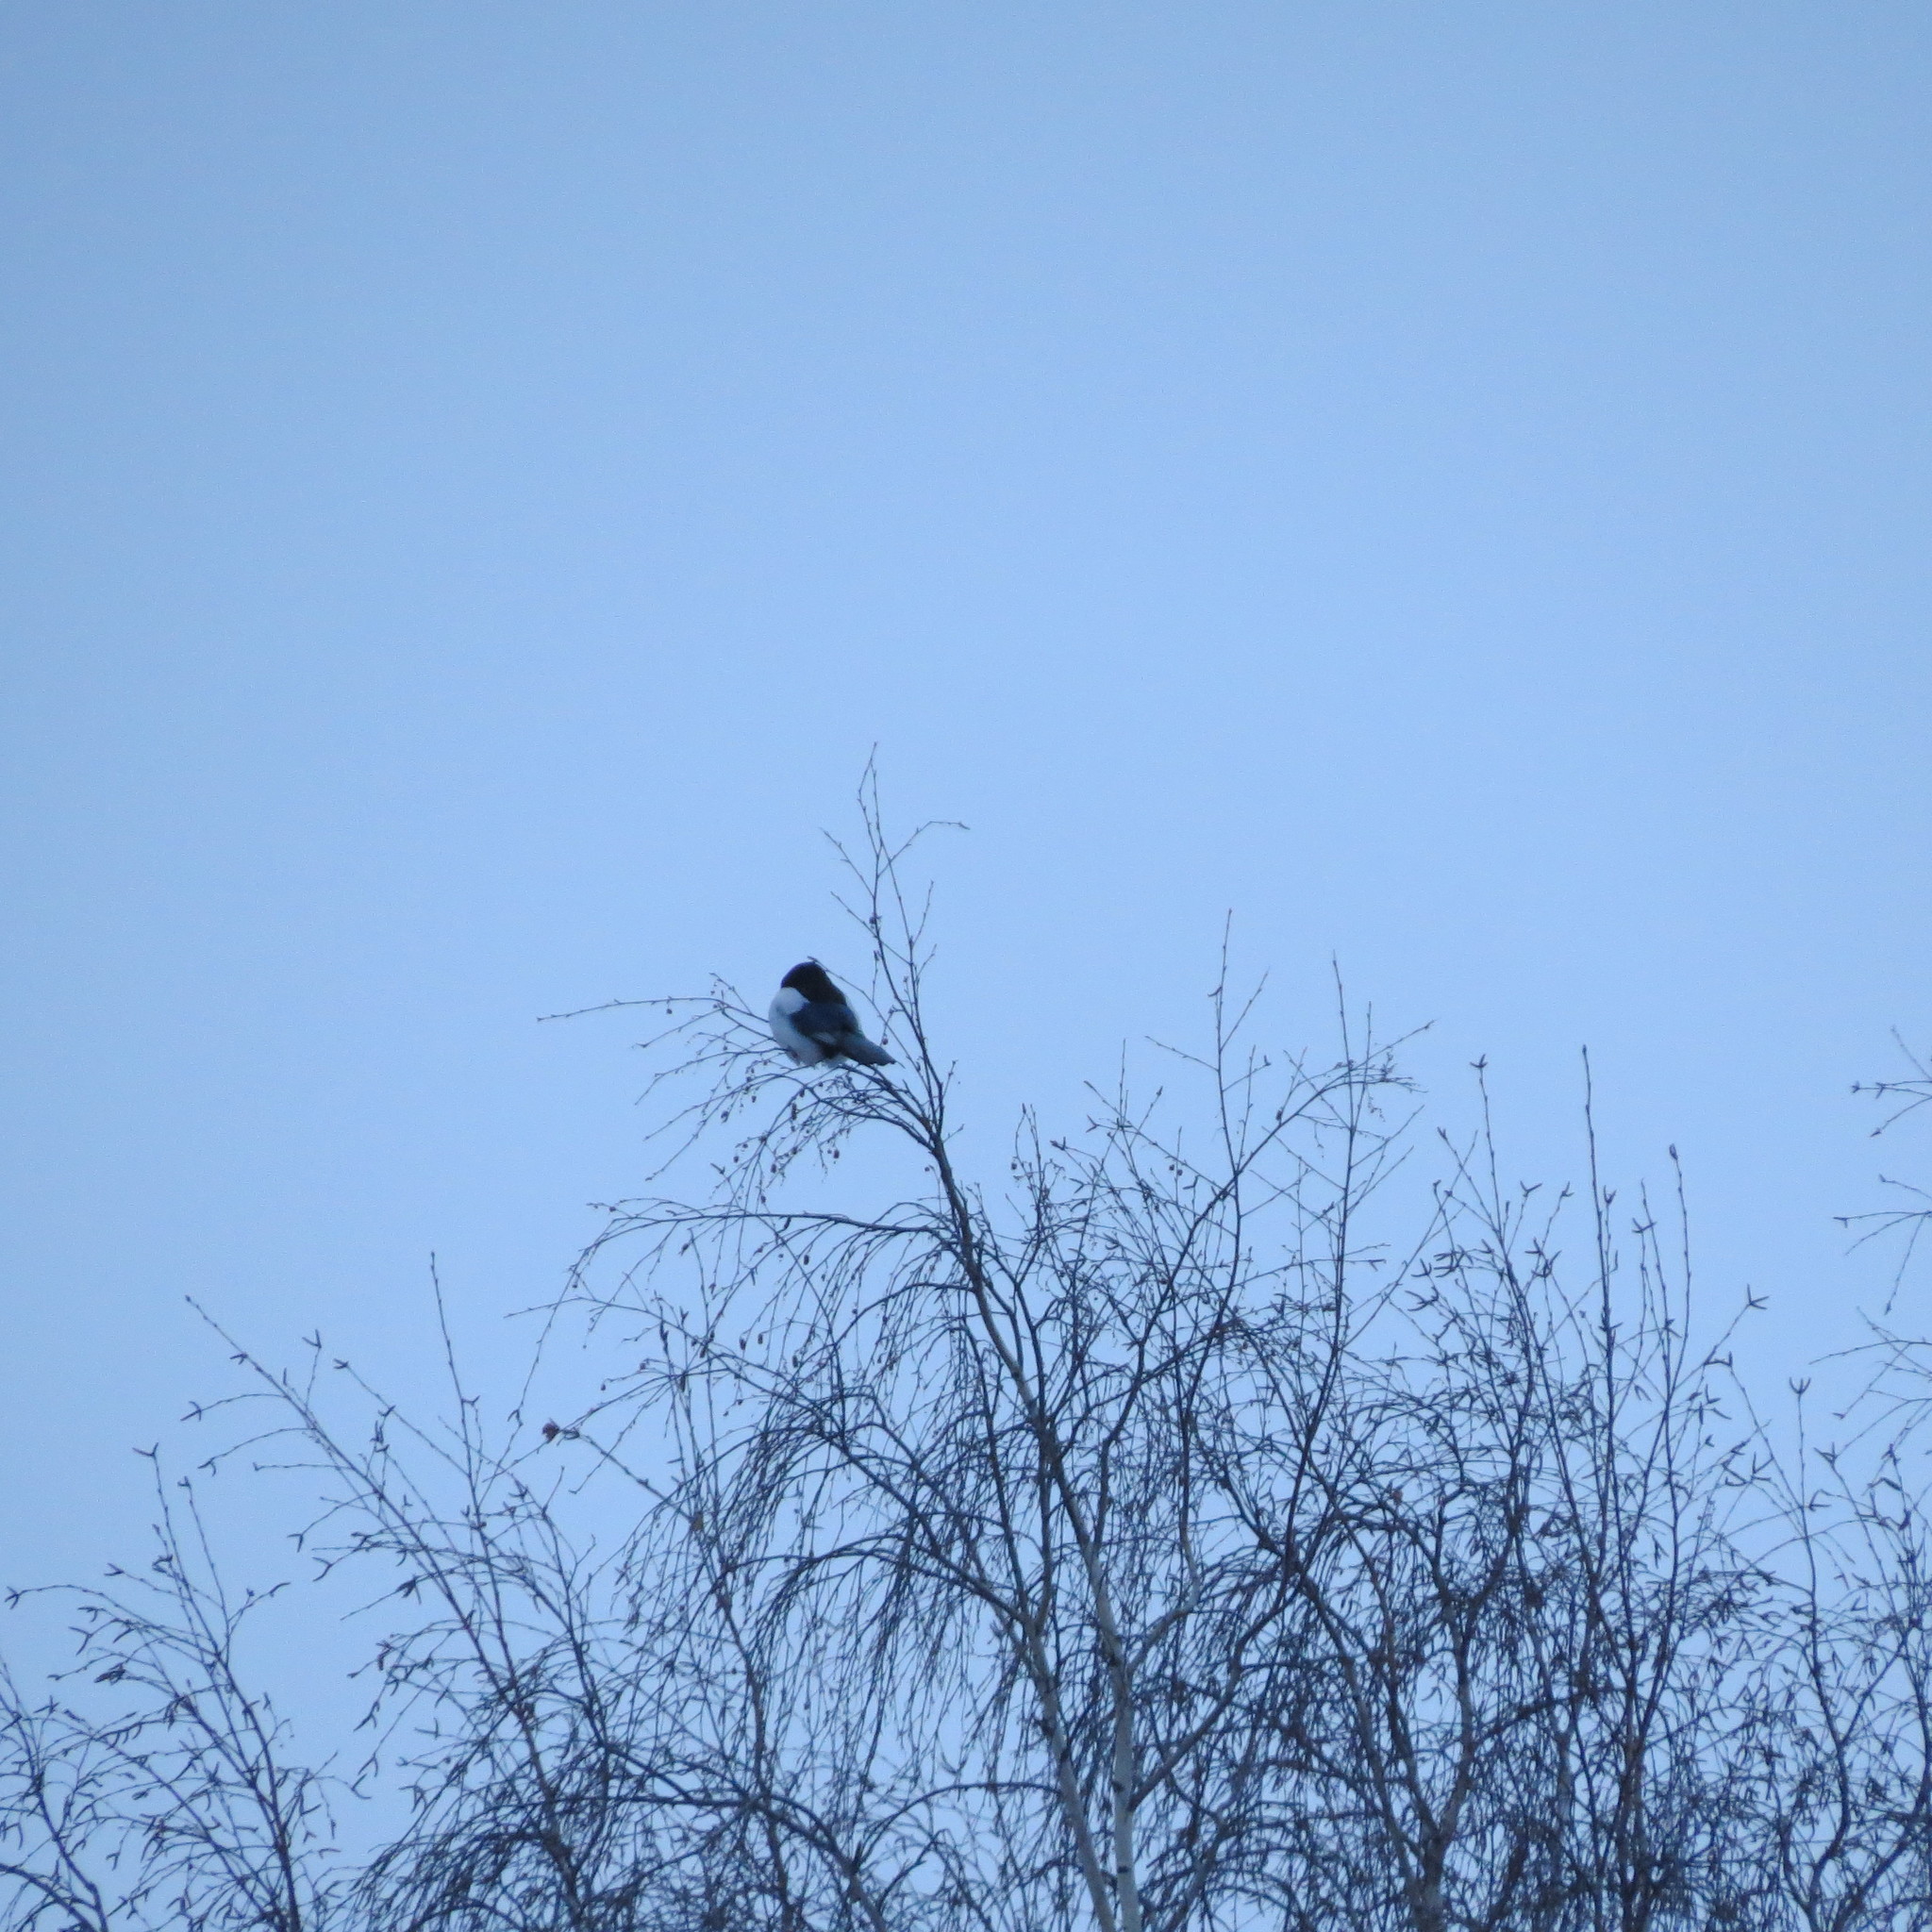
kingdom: Animalia
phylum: Chordata
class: Aves
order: Passeriformes
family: Corvidae
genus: Pica
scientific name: Pica pica
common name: Eurasian magpie
